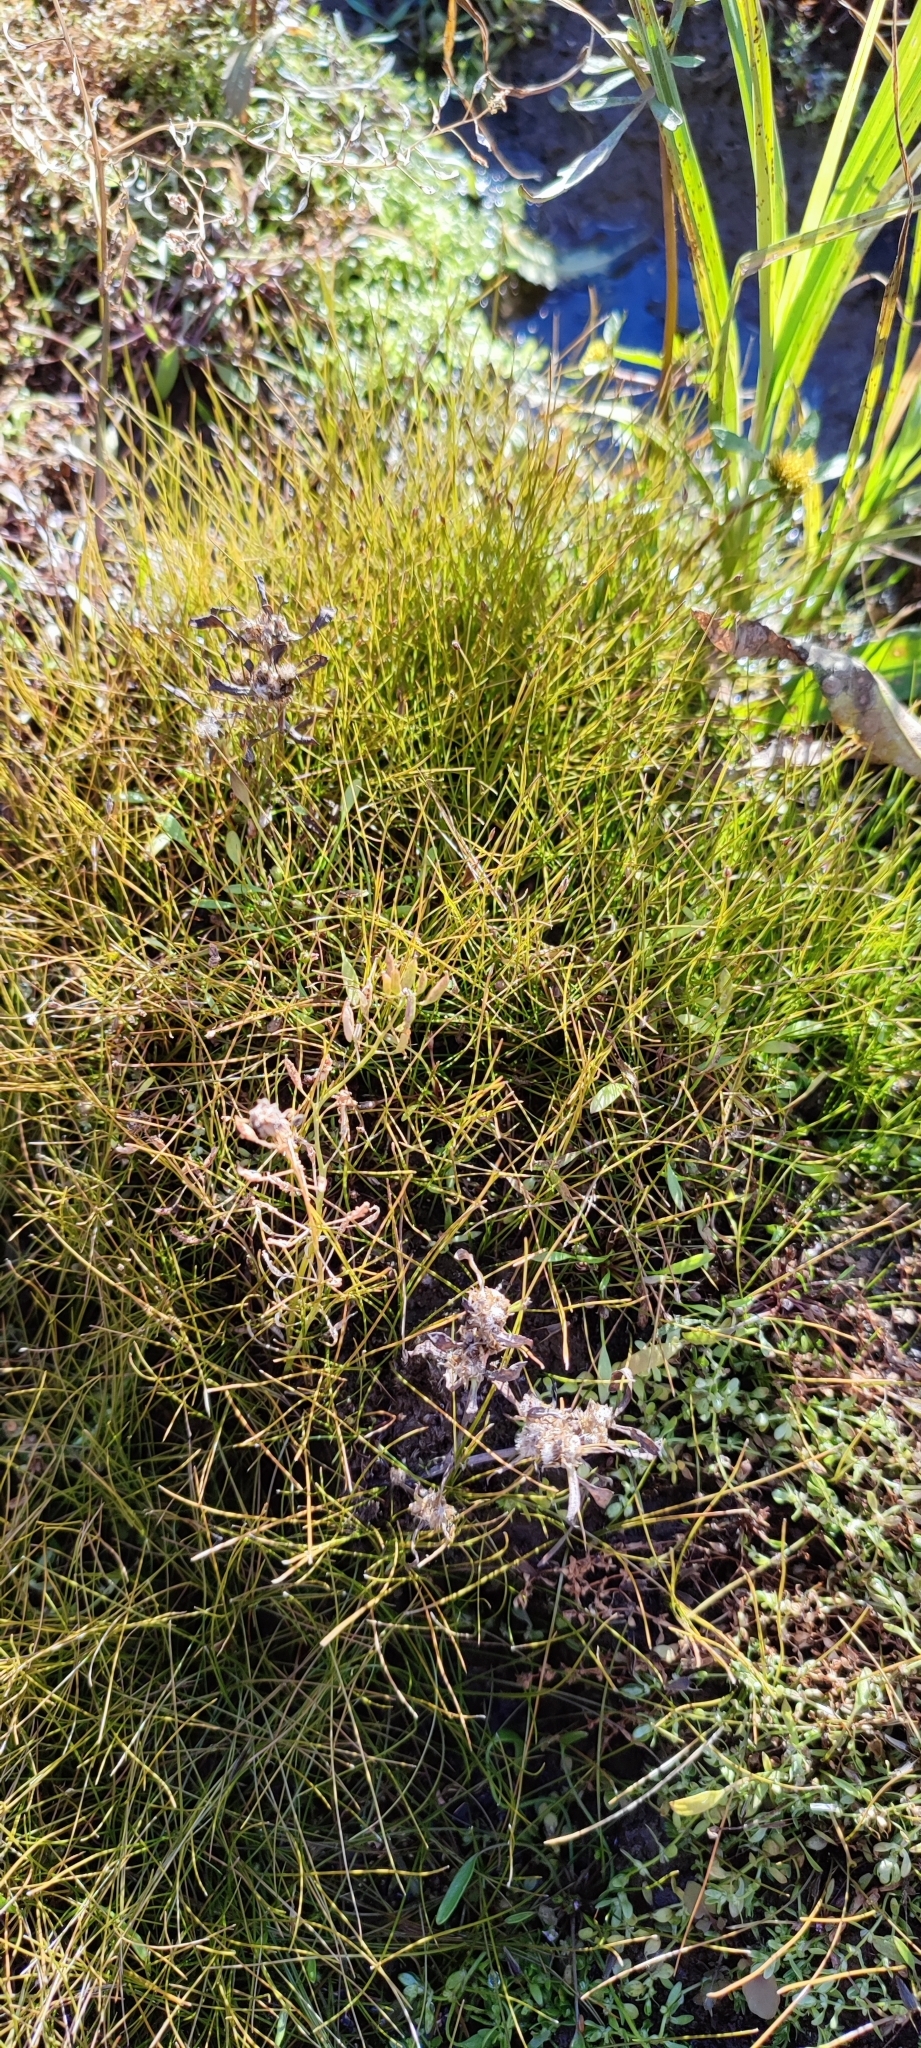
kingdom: Plantae
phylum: Tracheophyta
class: Liliopsida
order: Poales
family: Cyperaceae
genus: Eleocharis
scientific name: Eleocharis acicularis
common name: Needle spike-rush
